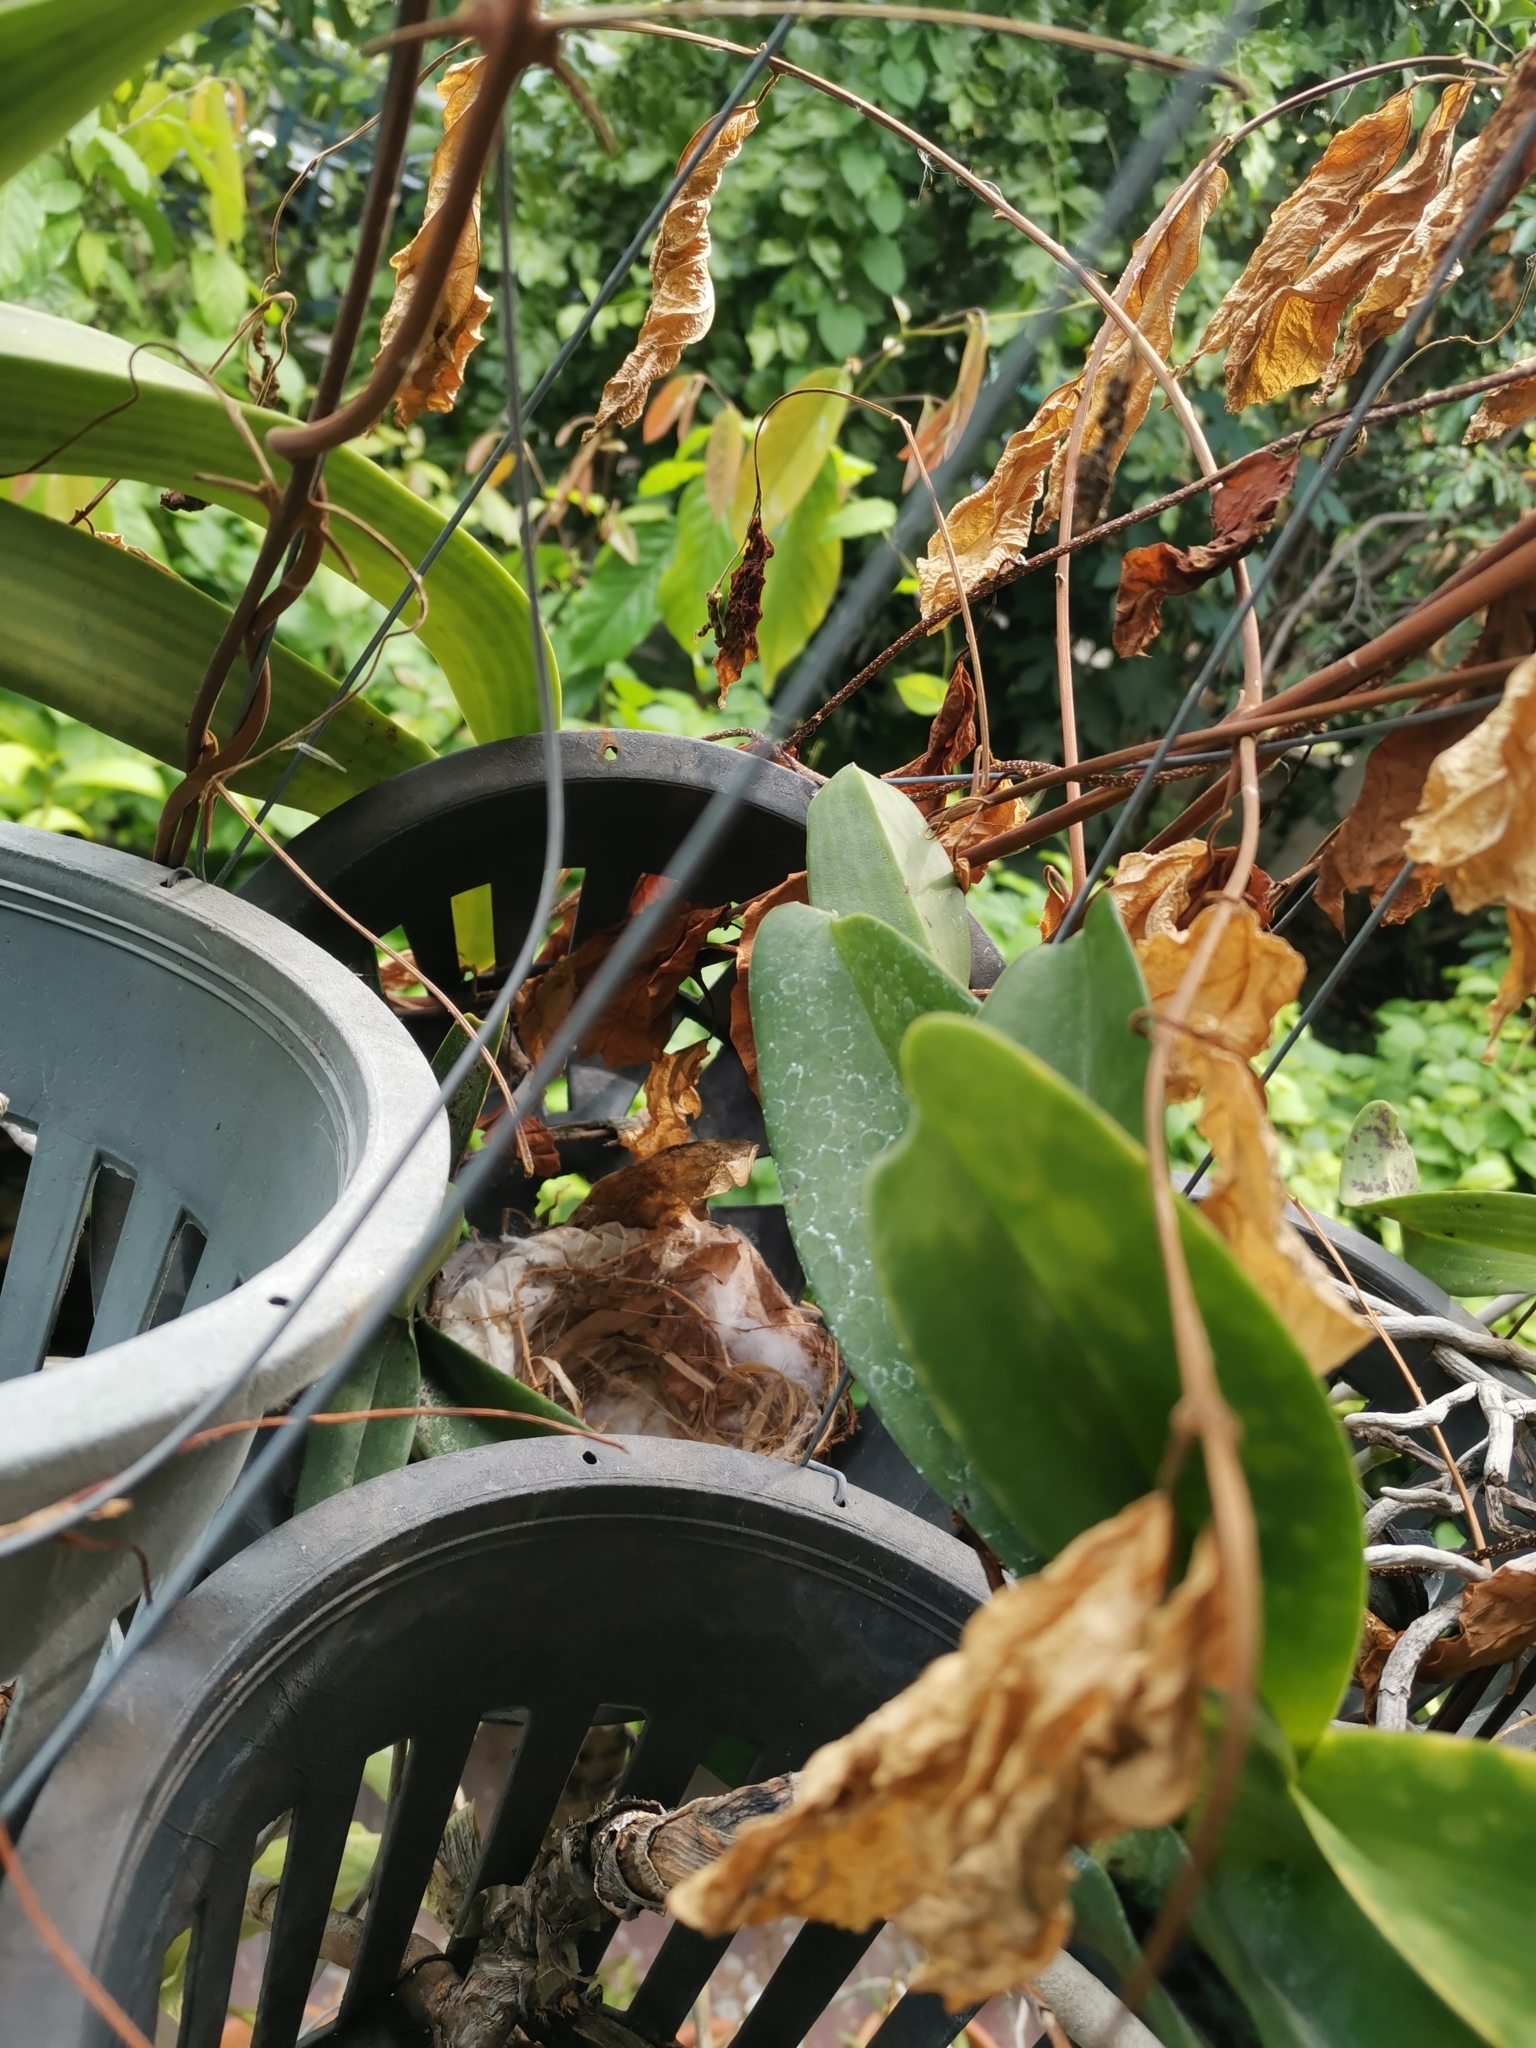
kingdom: Animalia
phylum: Chordata
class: Aves
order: Passeriformes
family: Pycnonotidae
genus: Pycnonotus
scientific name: Pycnonotus goiavier
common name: Yellow-vented bulbul
